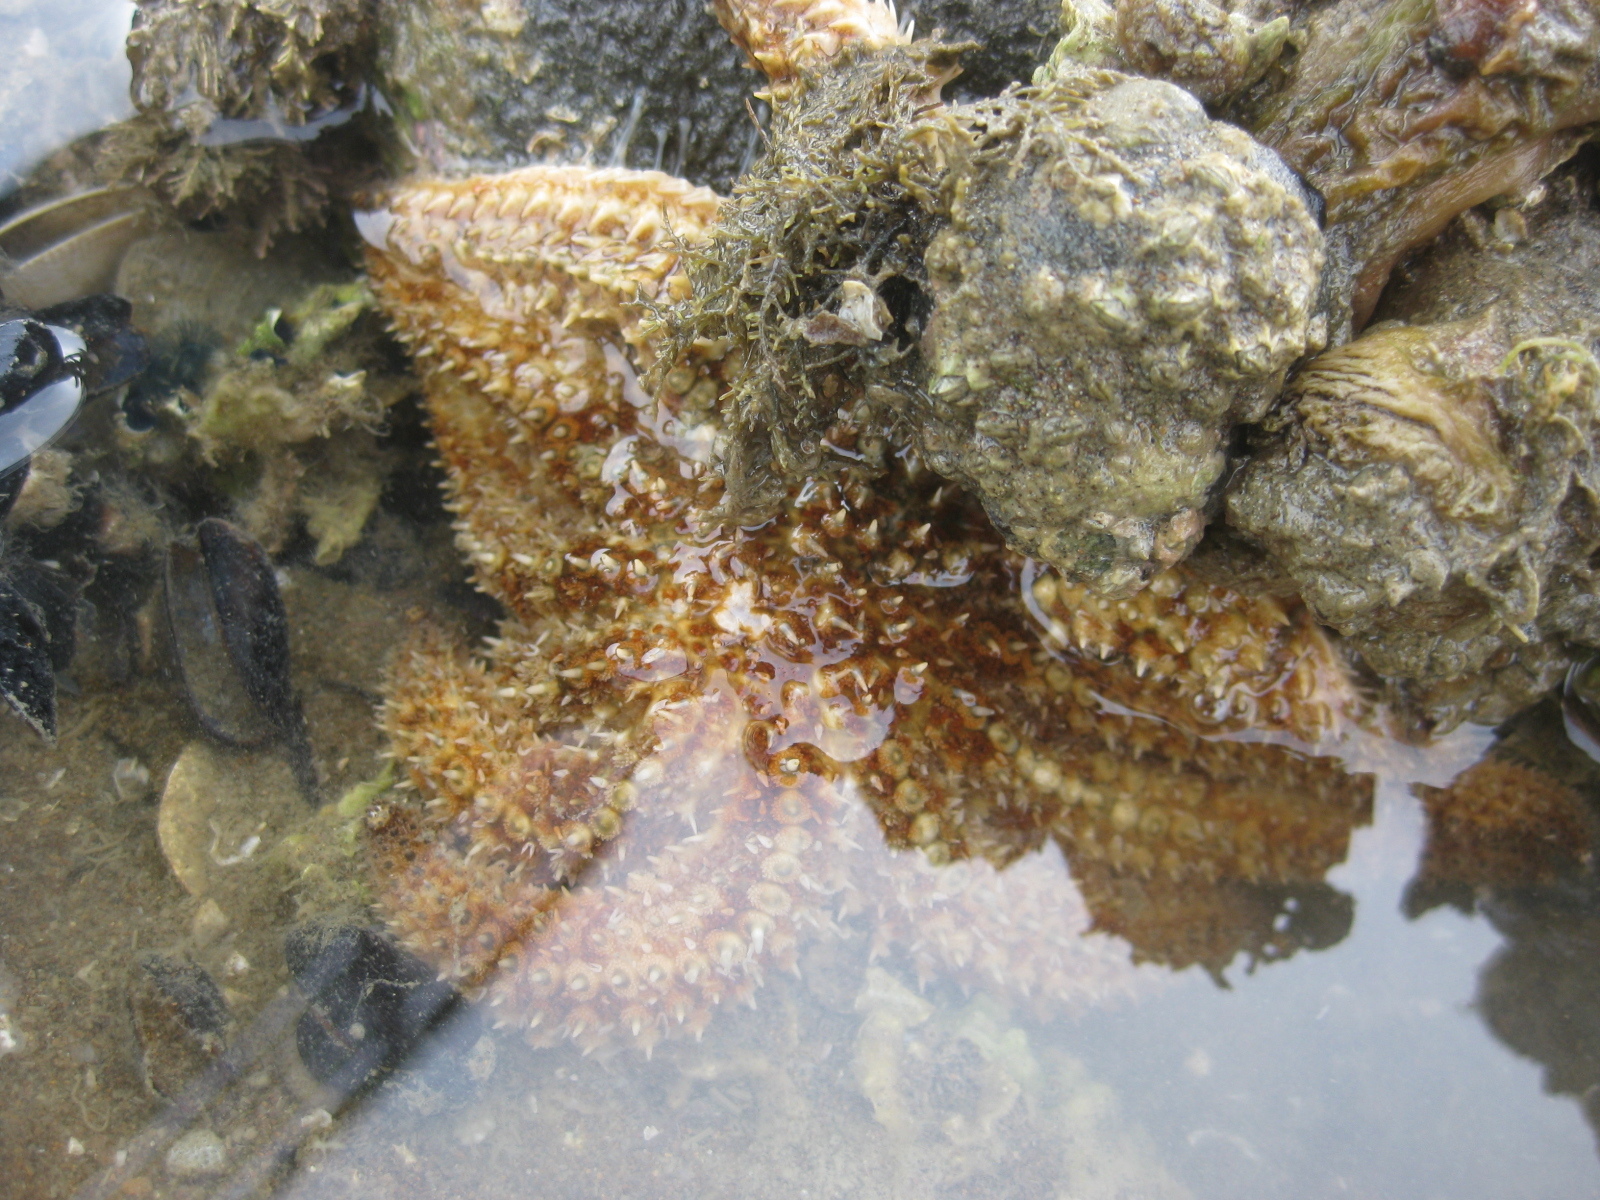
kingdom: Animalia
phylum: Echinodermata
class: Asteroidea
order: Forcipulatida
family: Asteriidae
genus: Coscinasterias
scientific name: Coscinasterias muricata
